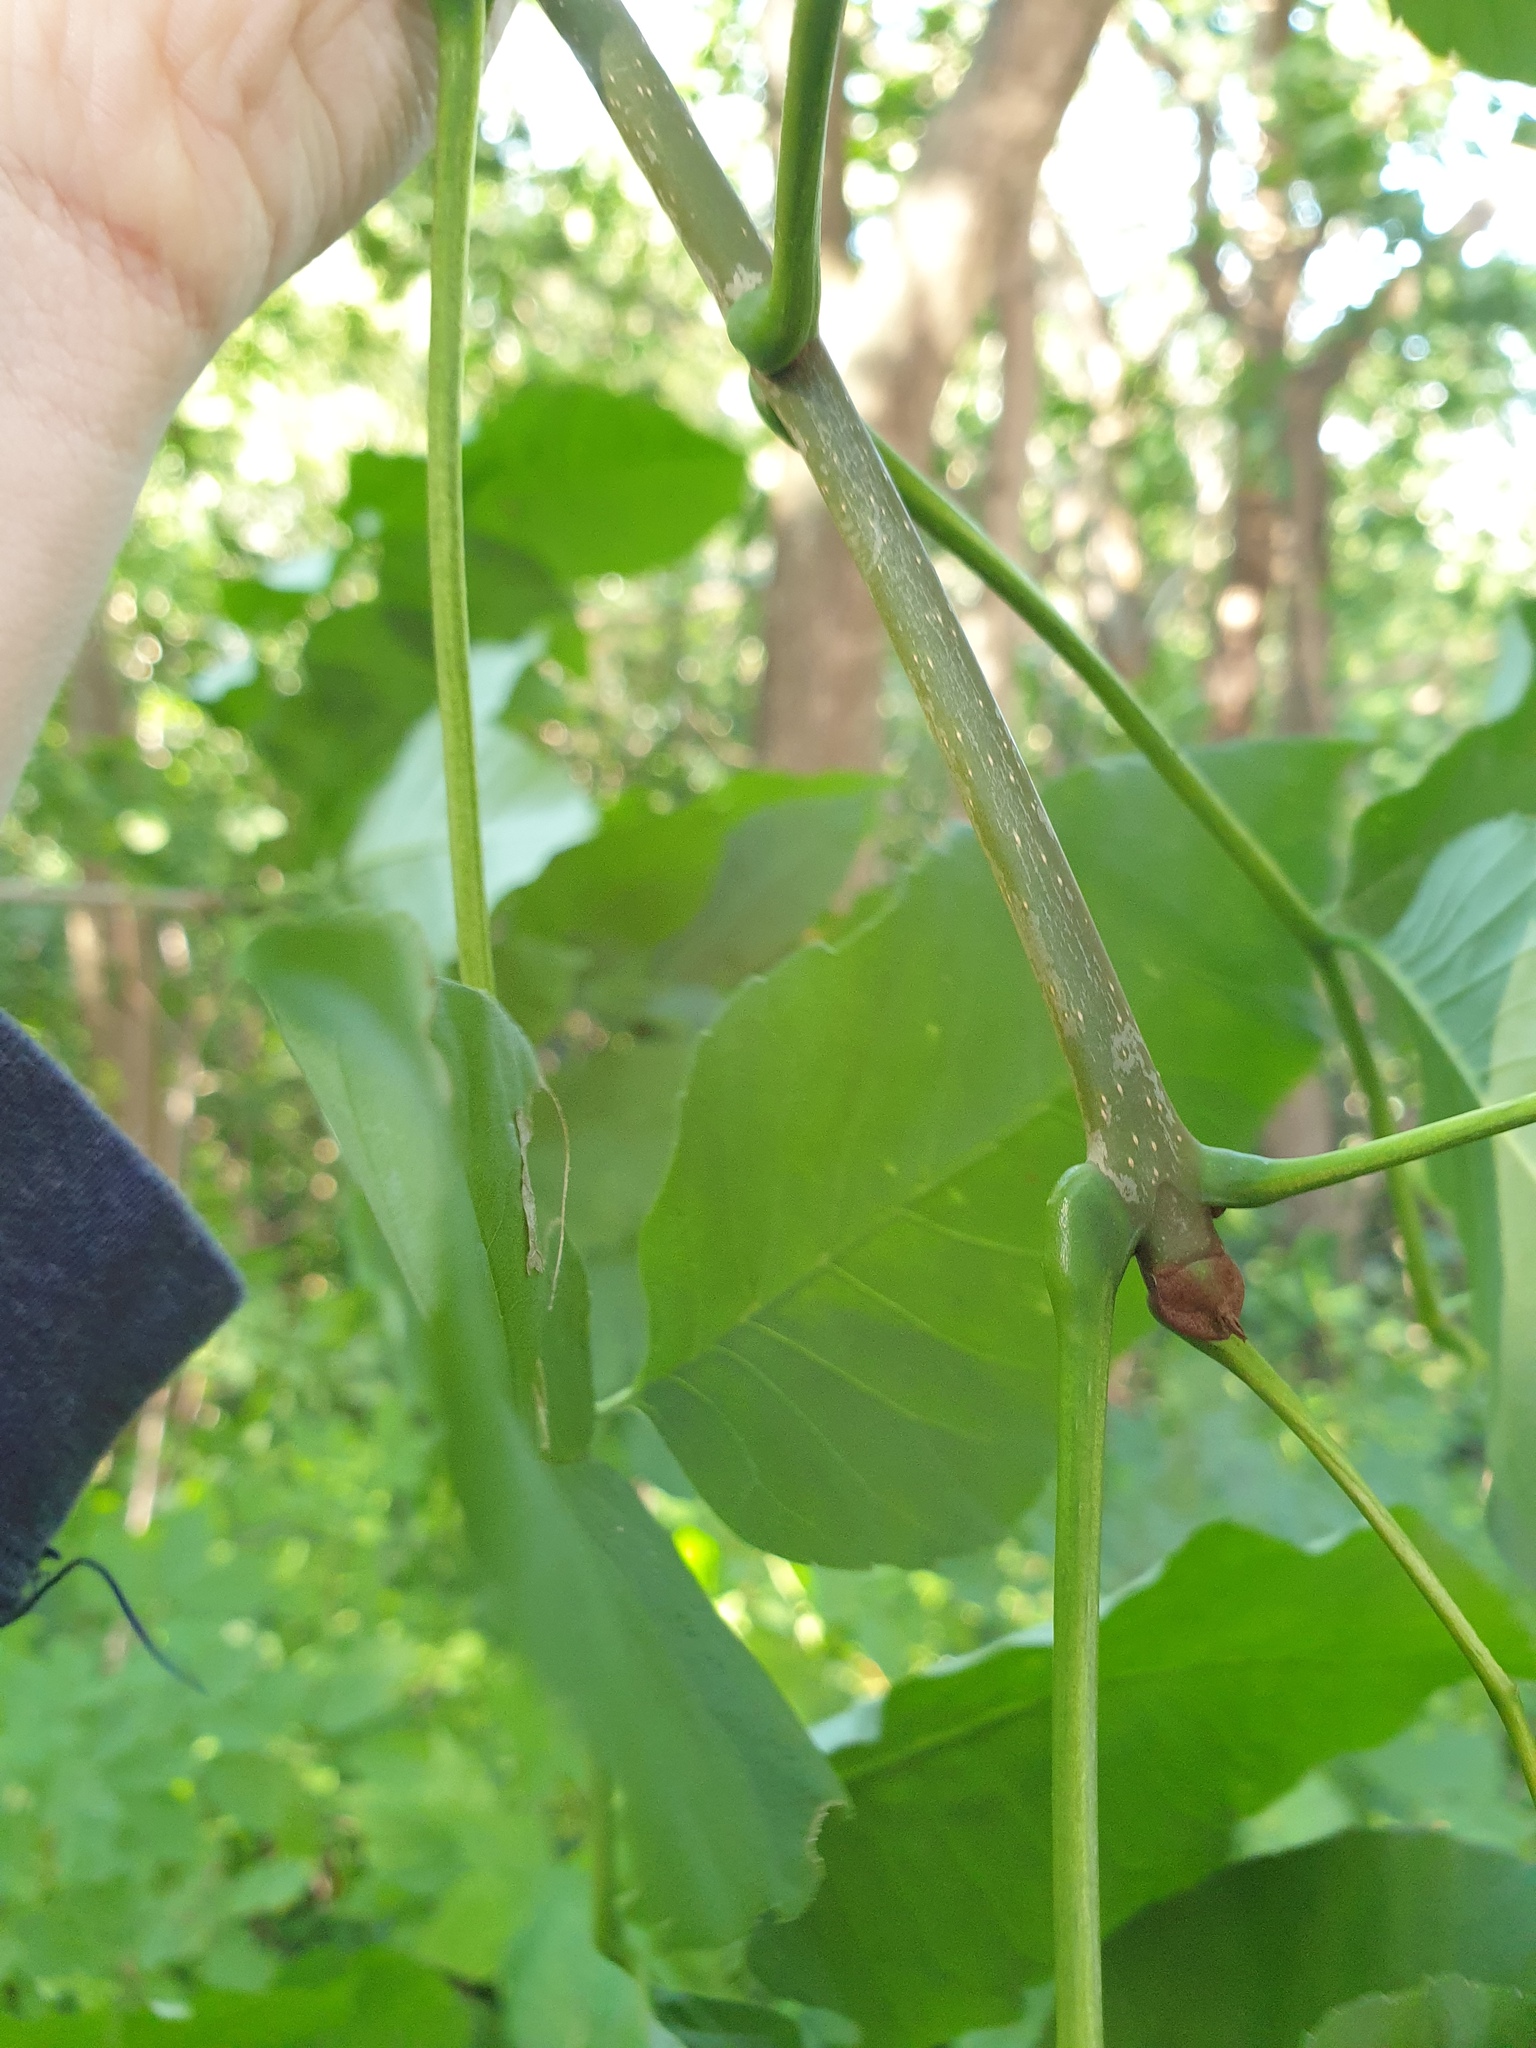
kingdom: Plantae
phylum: Tracheophyta
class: Magnoliopsida
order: Lamiales
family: Oleaceae
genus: Fraxinus
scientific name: Fraxinus americana
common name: White ash
